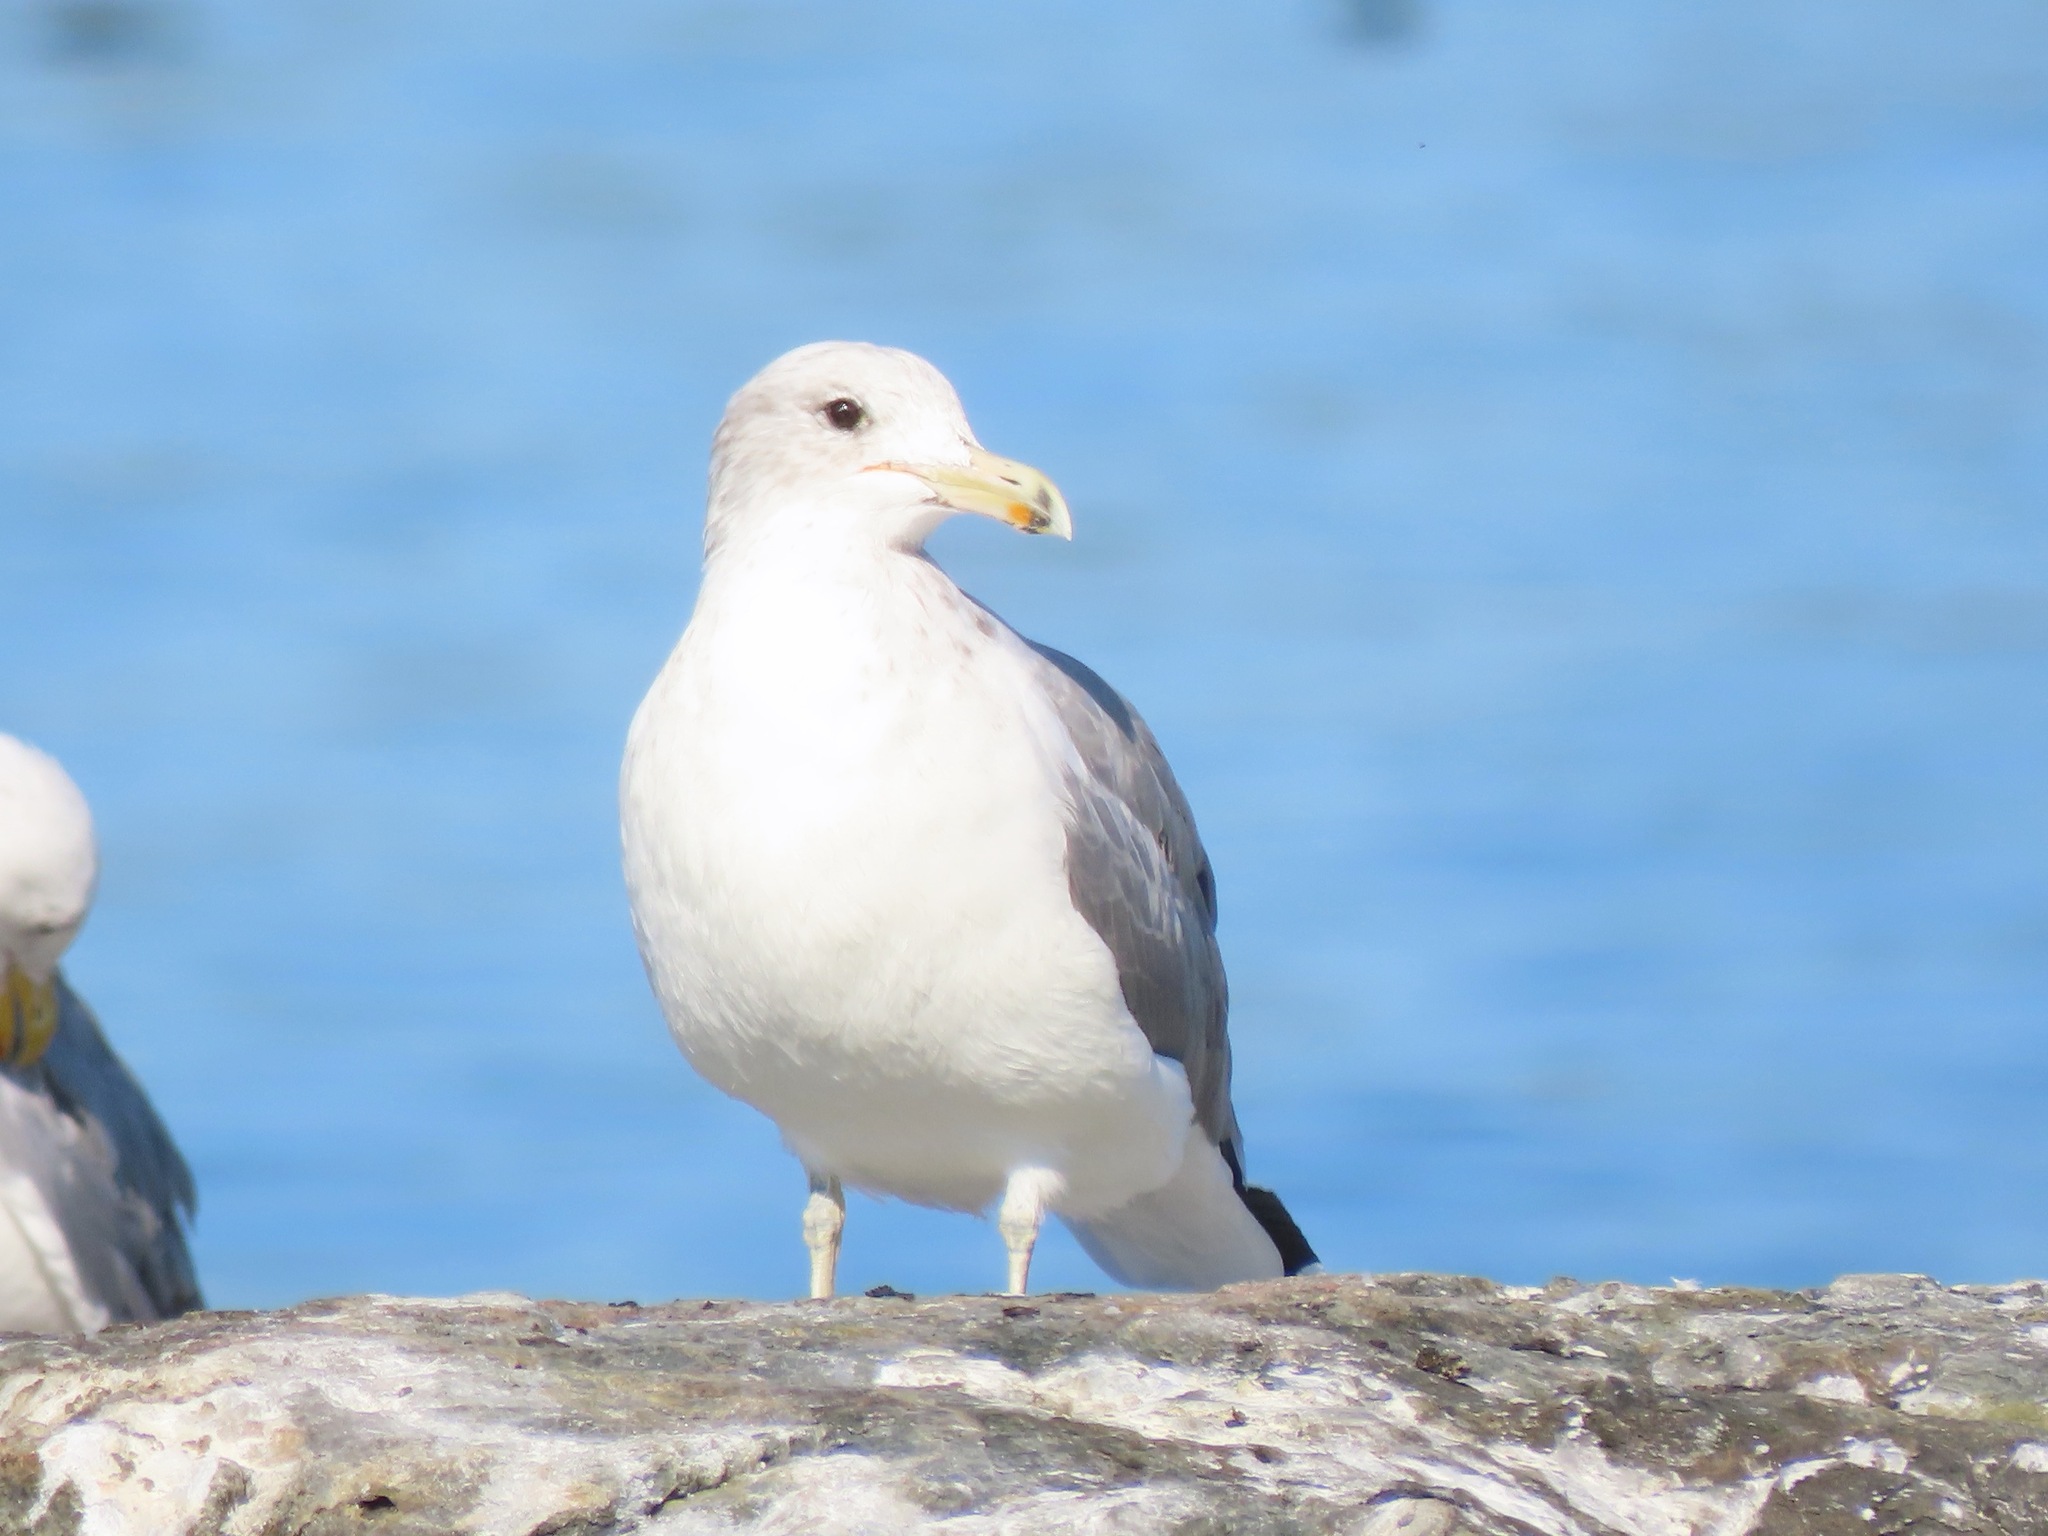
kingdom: Animalia
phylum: Chordata
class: Aves
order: Charadriiformes
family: Laridae
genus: Larus
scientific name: Larus californicus
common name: California gull
